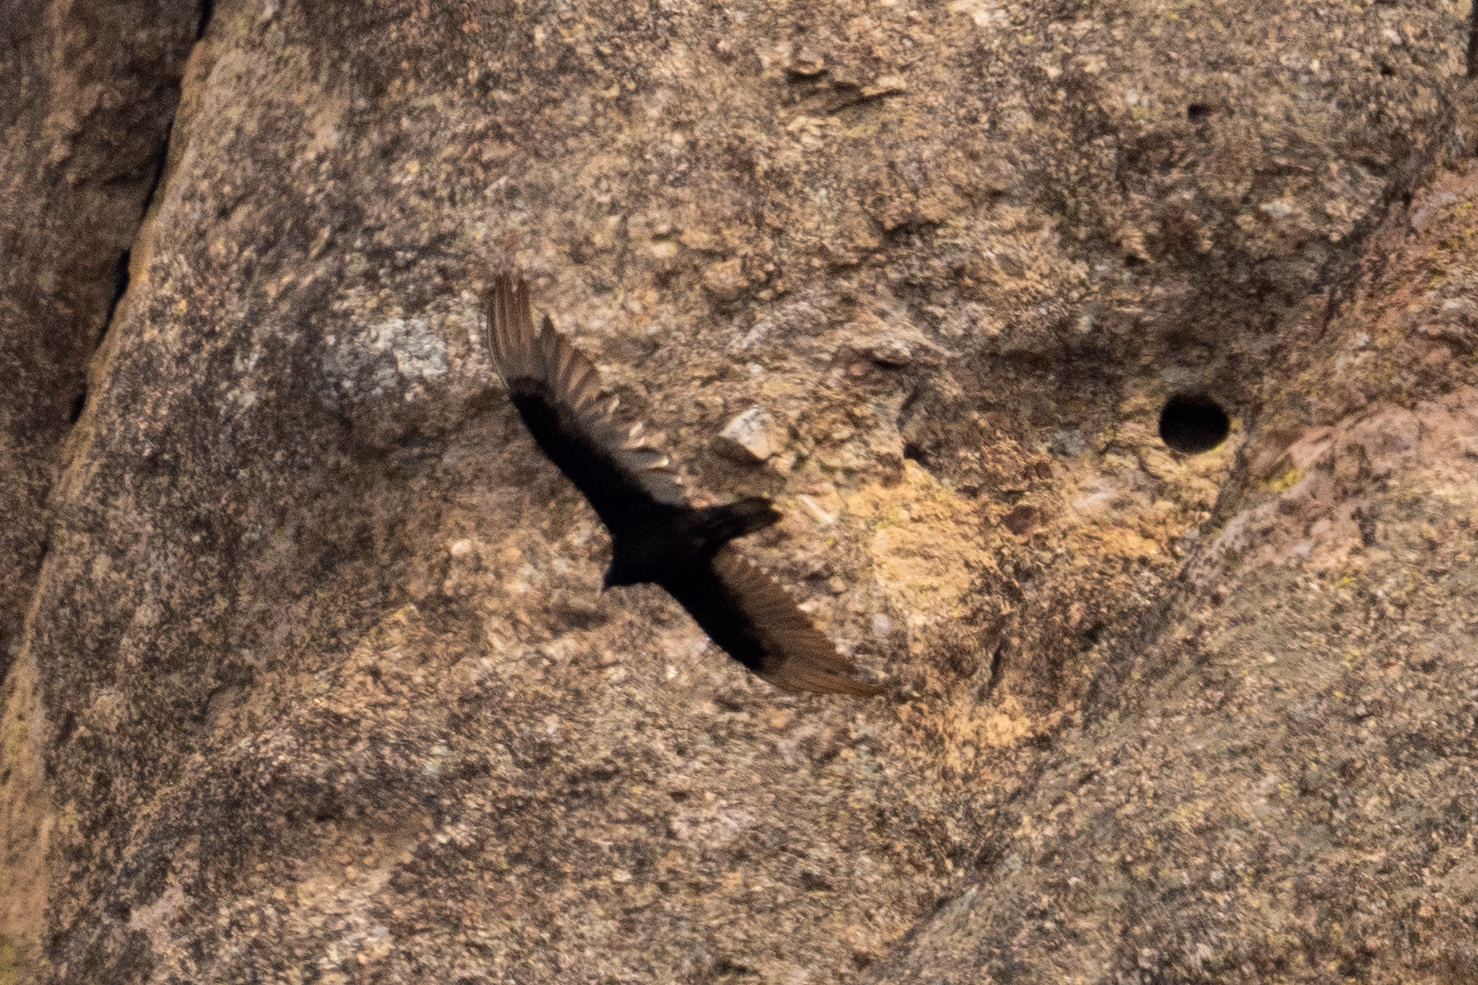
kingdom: Animalia
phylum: Chordata
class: Aves
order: Accipitriformes
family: Cathartidae
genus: Cathartes
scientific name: Cathartes aura
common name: Turkey vulture
